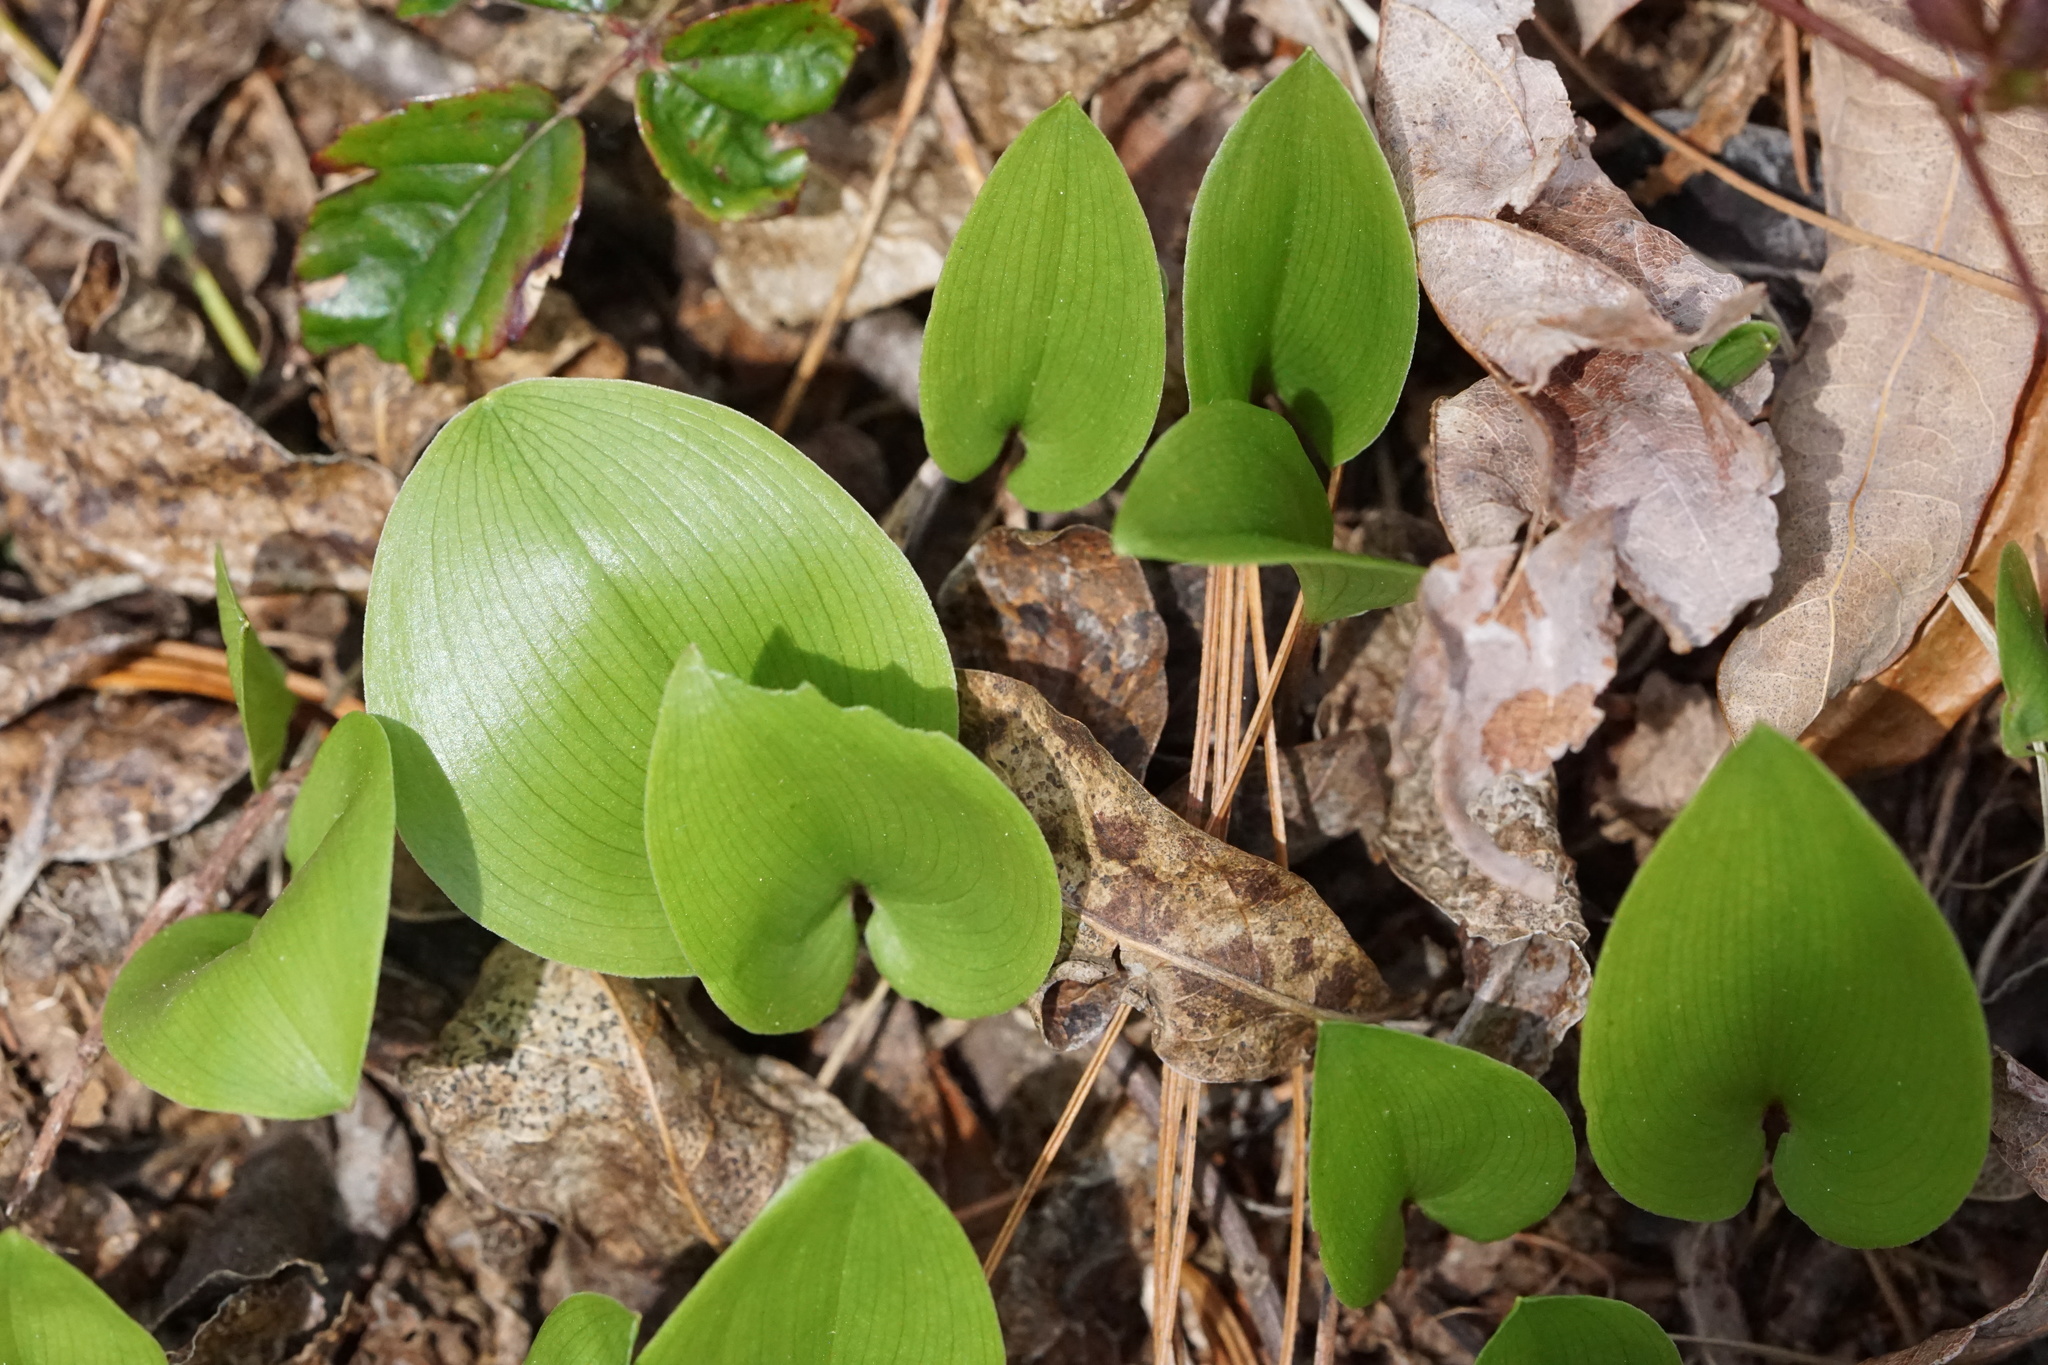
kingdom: Plantae
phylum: Tracheophyta
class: Liliopsida
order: Asparagales
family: Asparagaceae
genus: Maianthemum
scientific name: Maianthemum canadense
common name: False lily-of-the-valley
